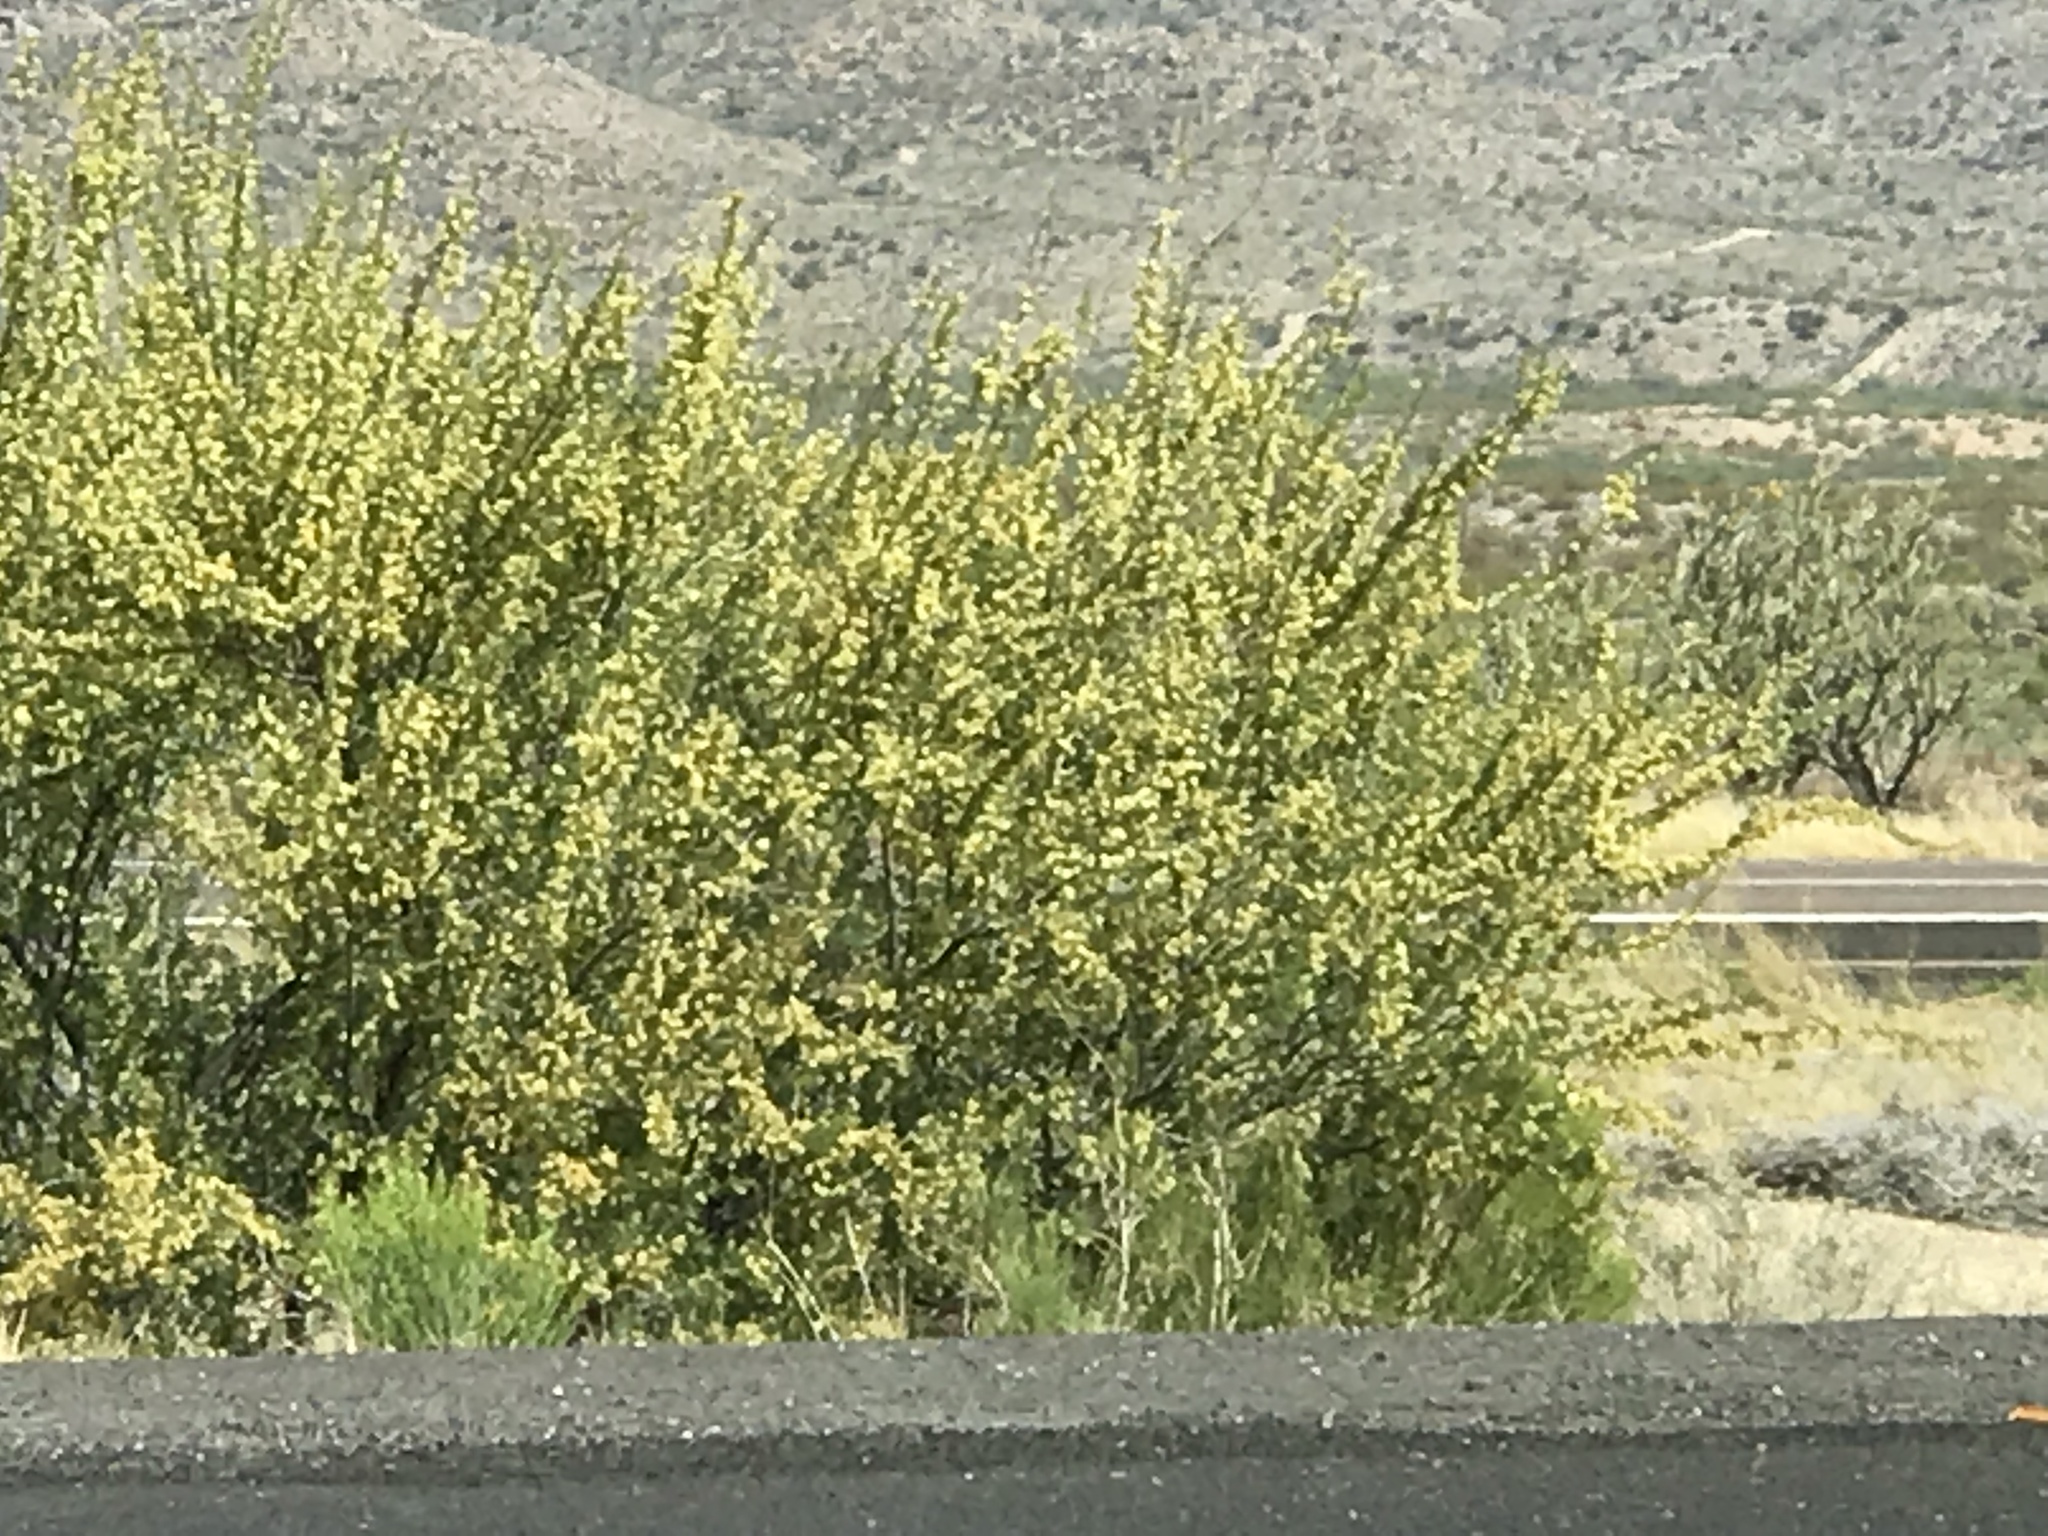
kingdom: Plantae
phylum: Tracheophyta
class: Magnoliopsida
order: Fabales
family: Fabaceae
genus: Senegalia
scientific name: Senegalia greggii
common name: Texas-mimosa
